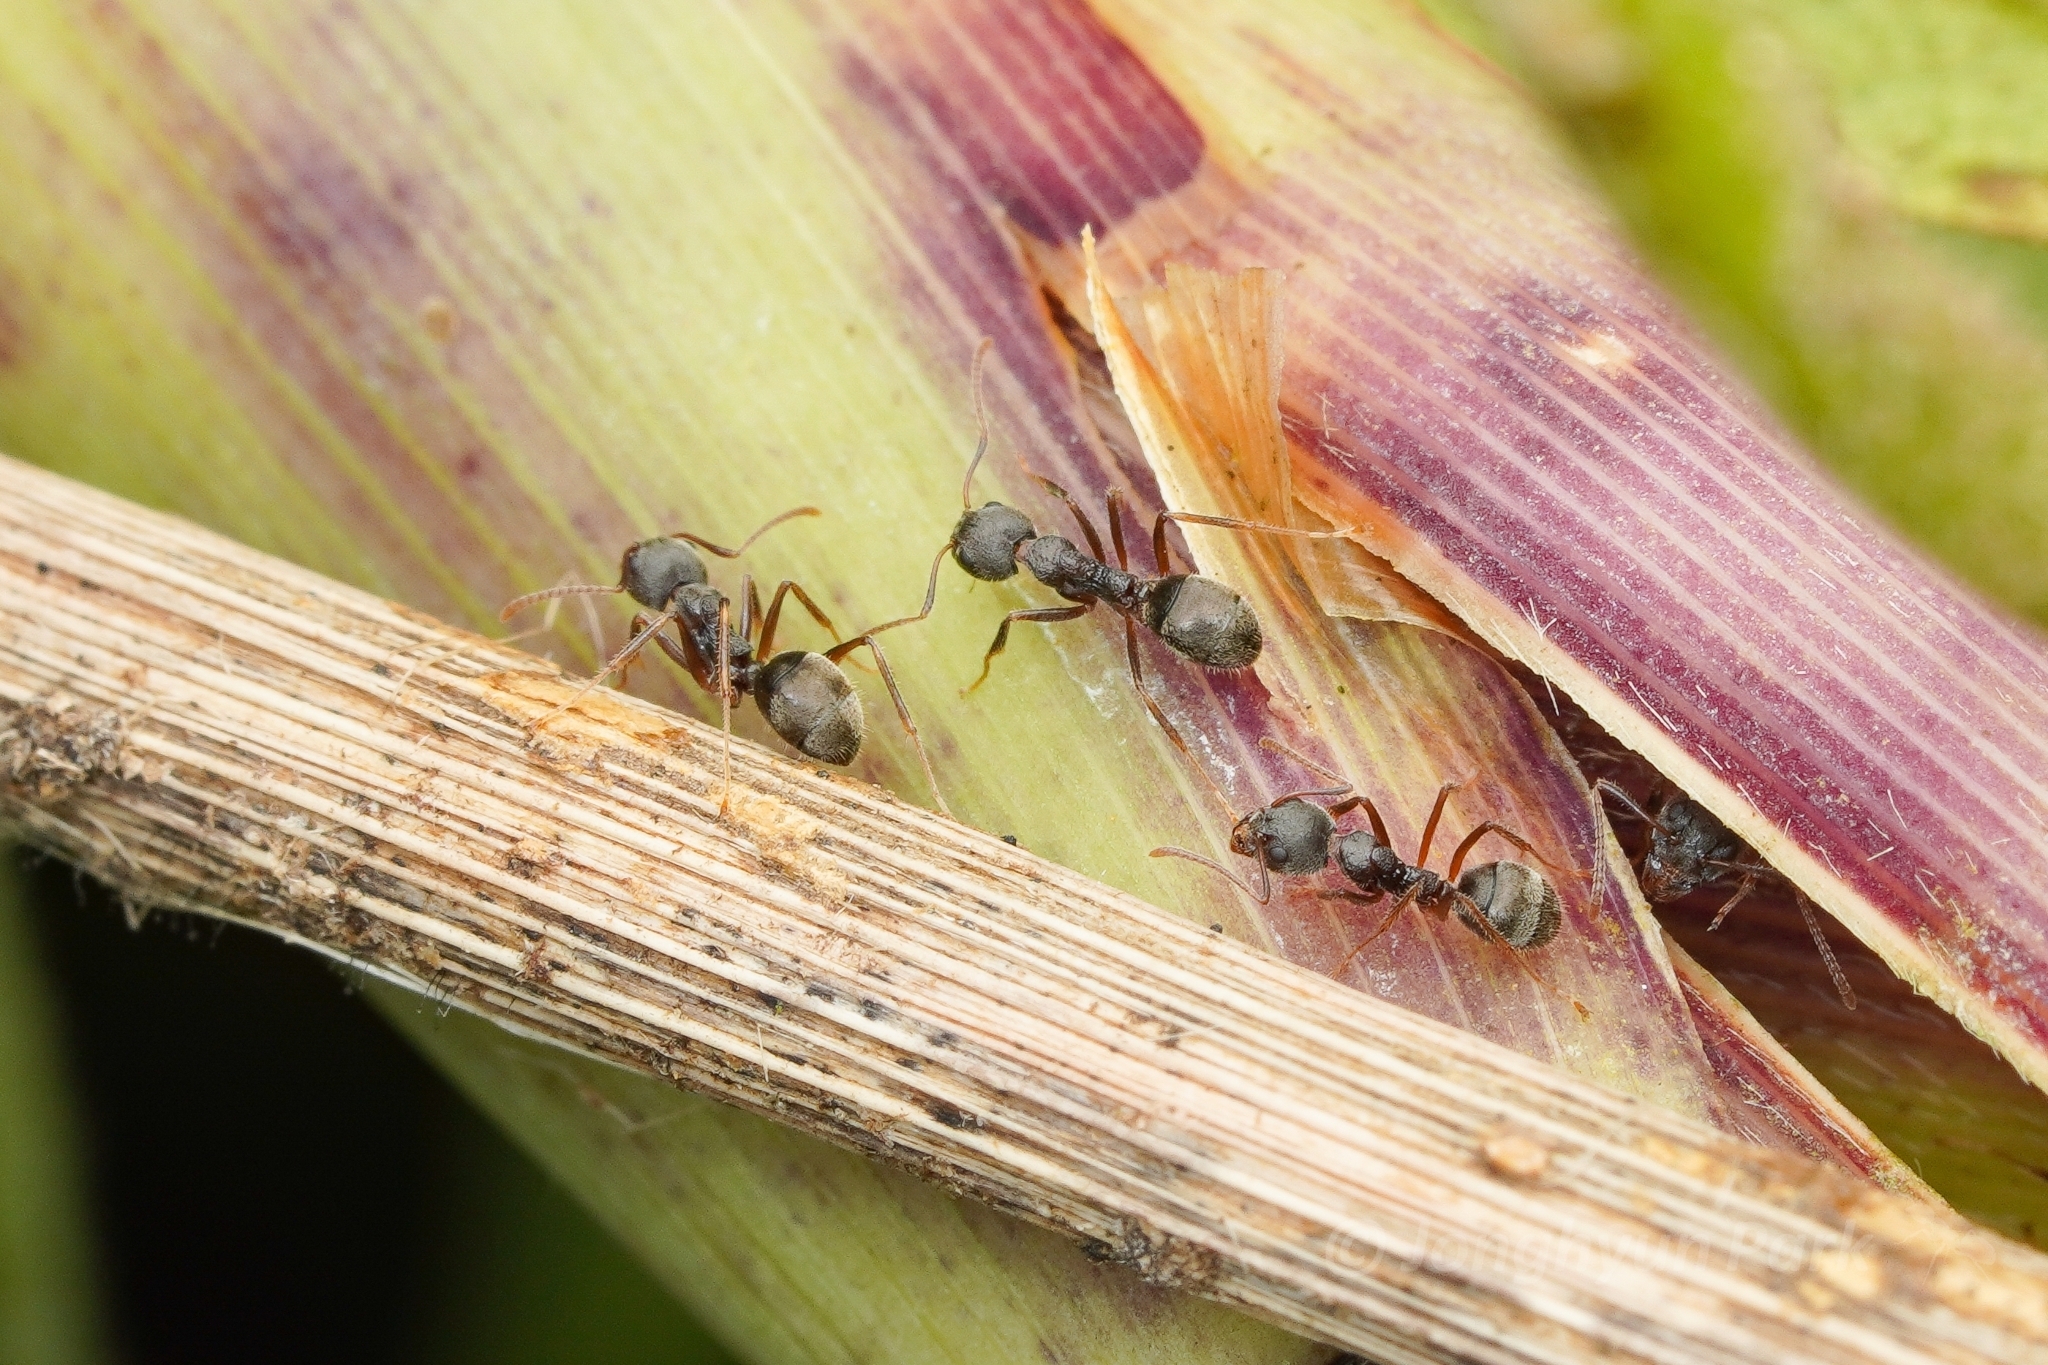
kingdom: Animalia
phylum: Arthropoda
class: Insecta
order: Hymenoptera
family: Formicidae
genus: Dolichoderus
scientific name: Dolichoderus affinis
